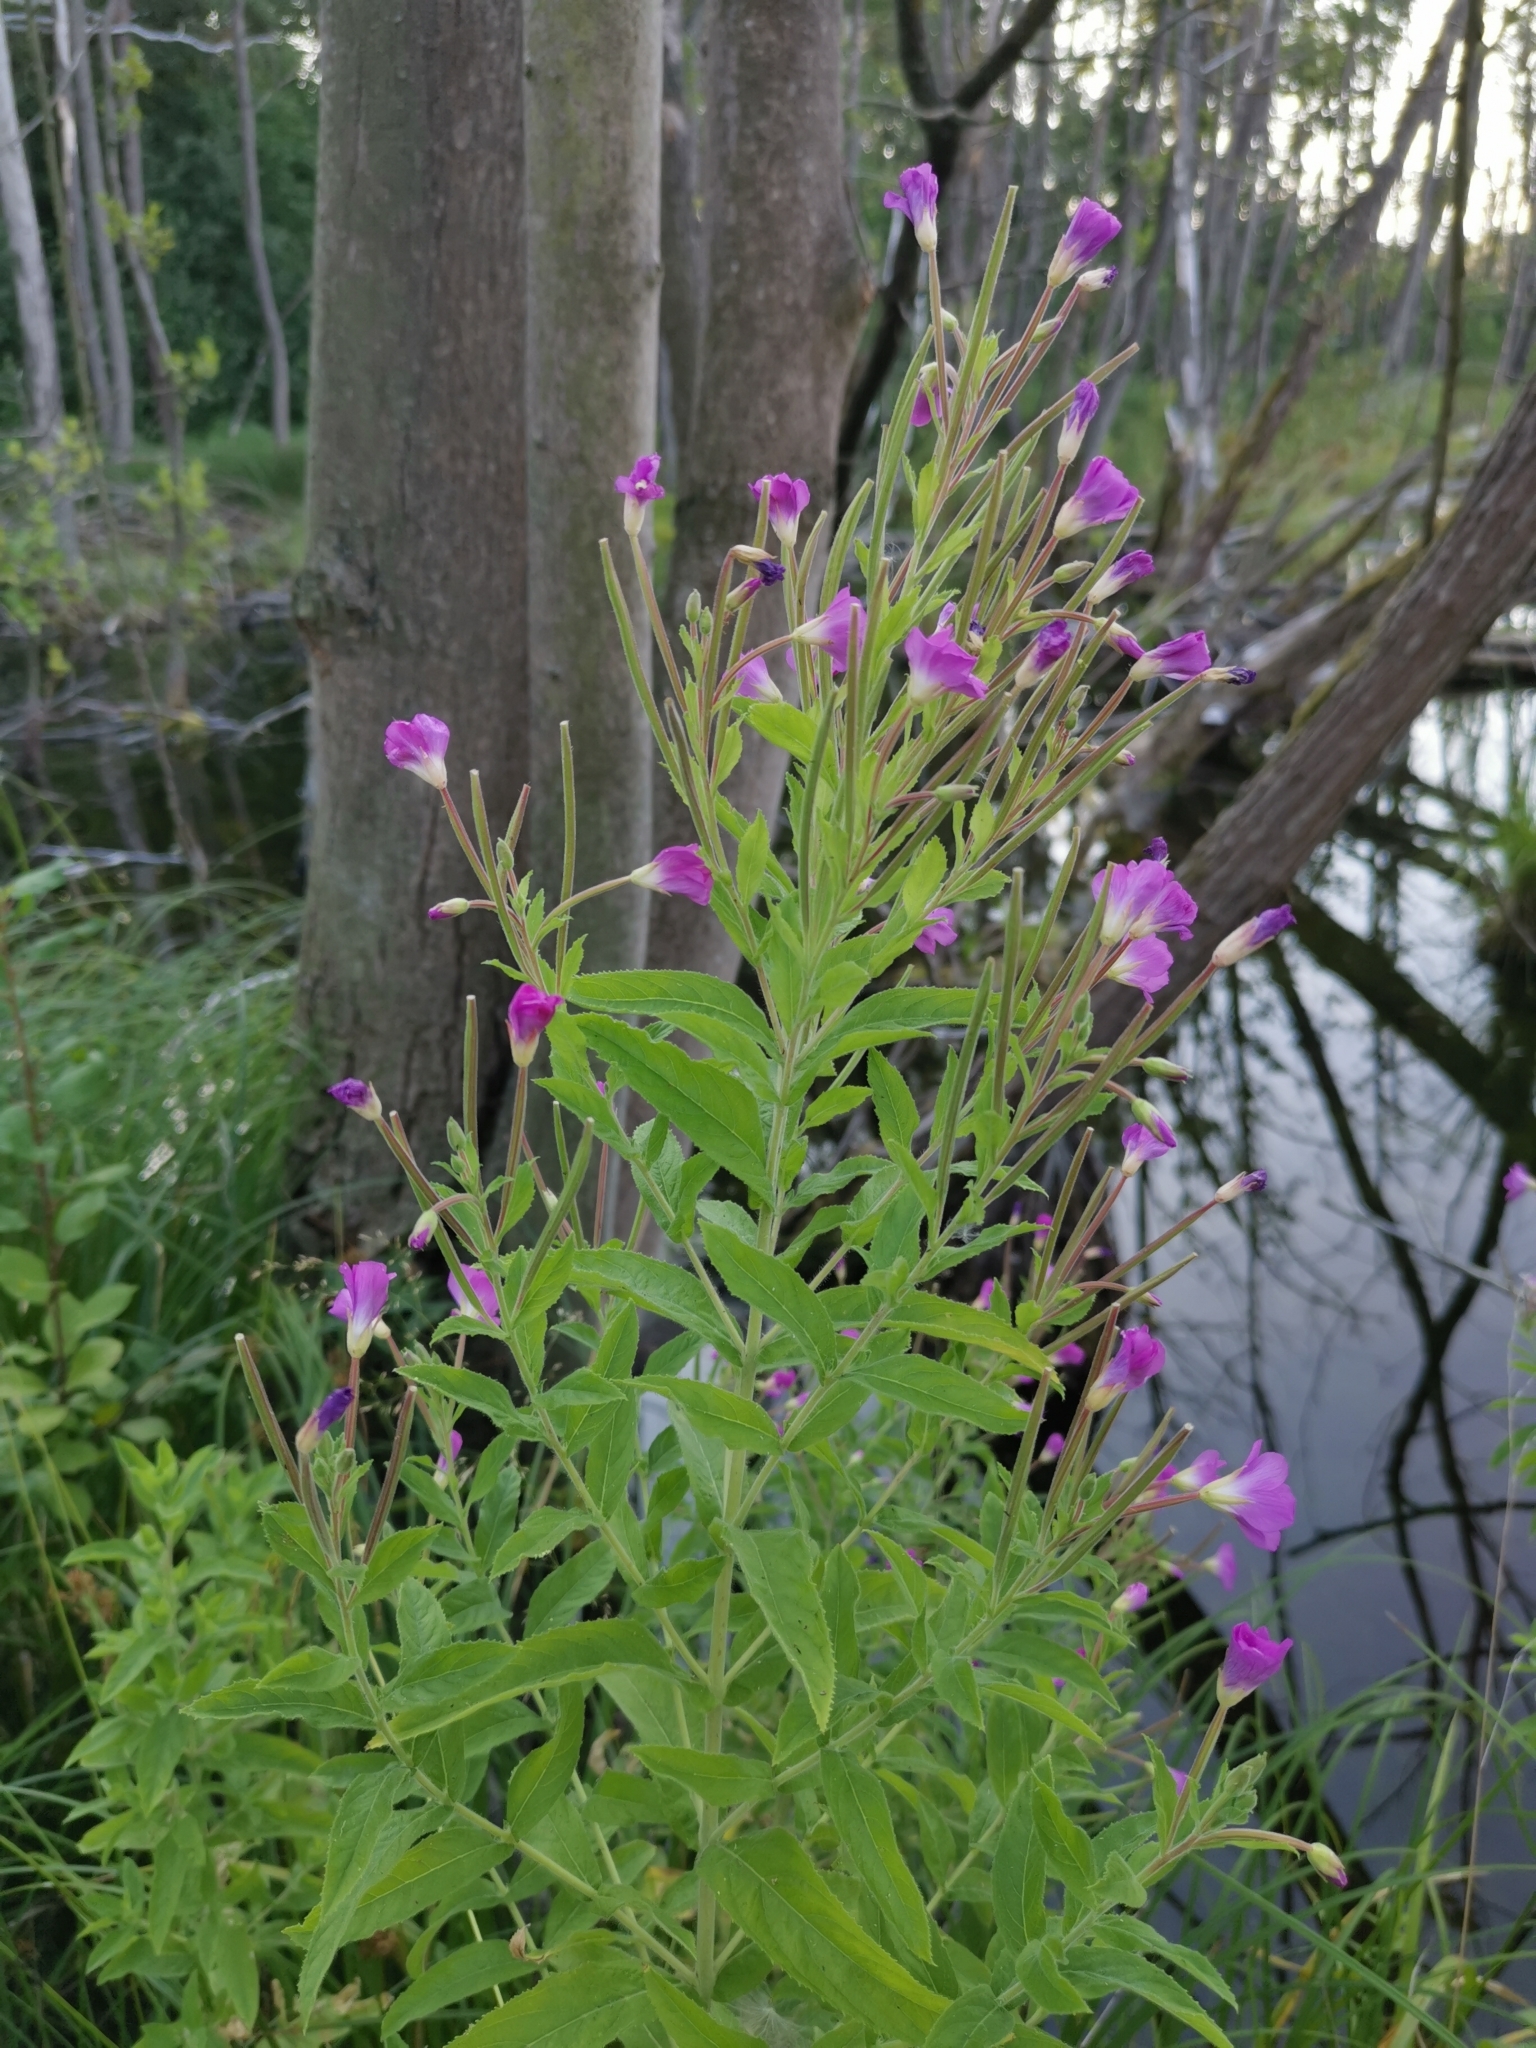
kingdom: Plantae
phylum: Tracheophyta
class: Magnoliopsida
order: Myrtales
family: Onagraceae
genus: Epilobium
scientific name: Epilobium hirsutum
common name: Great willowherb
